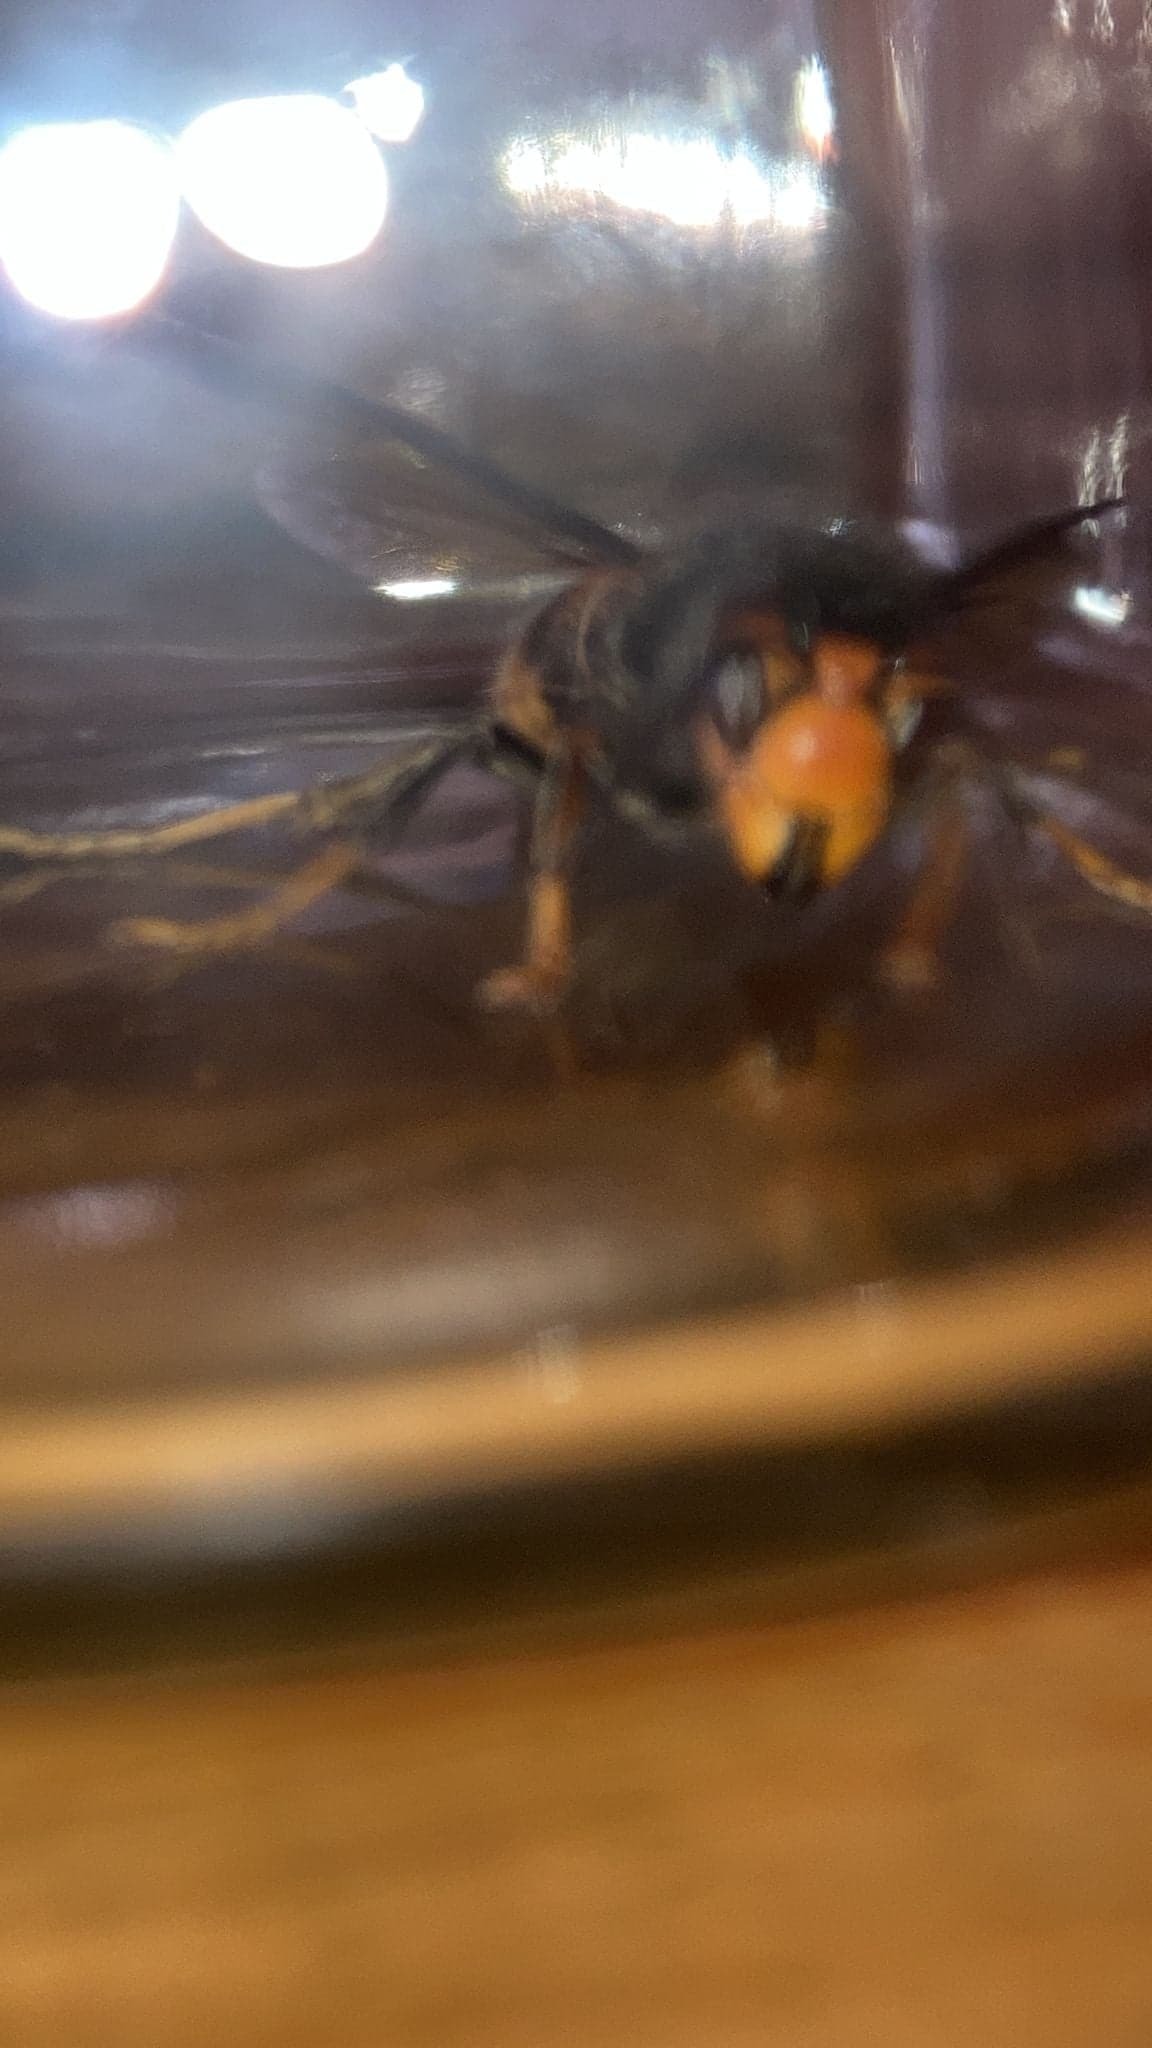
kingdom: Animalia
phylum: Arthropoda
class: Insecta
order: Hymenoptera
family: Vespidae
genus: Vespa
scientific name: Vespa velutina
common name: Asian hornet
